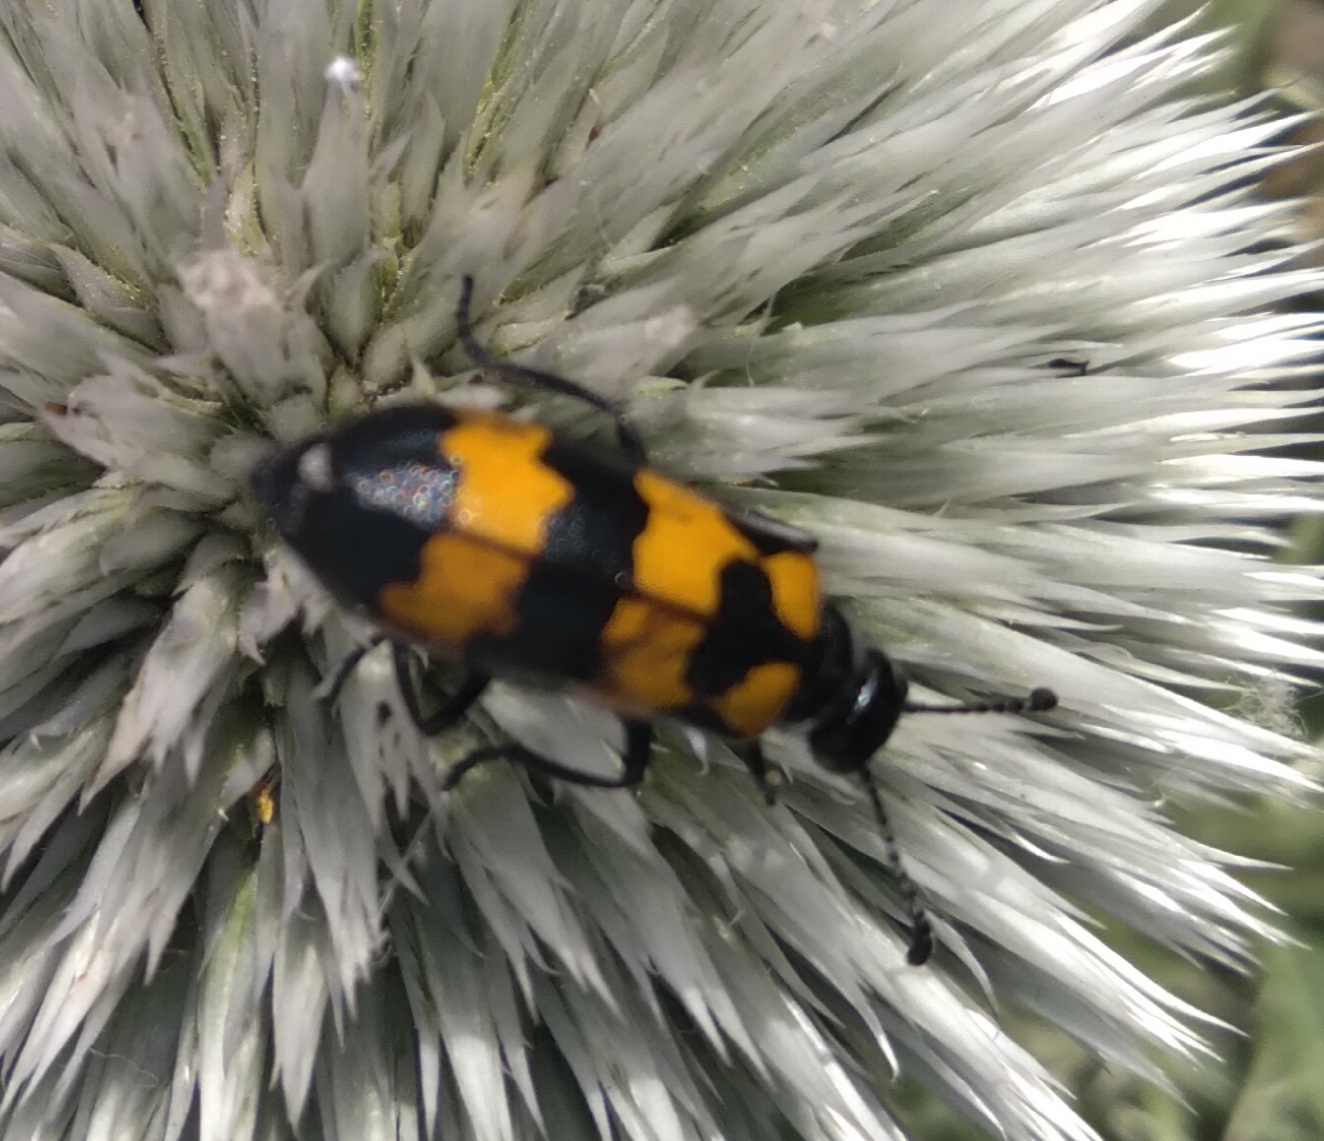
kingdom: Animalia
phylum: Arthropoda
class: Insecta
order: Coleoptera
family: Meloidae
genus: Mylabris
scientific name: Mylabris variabilis
